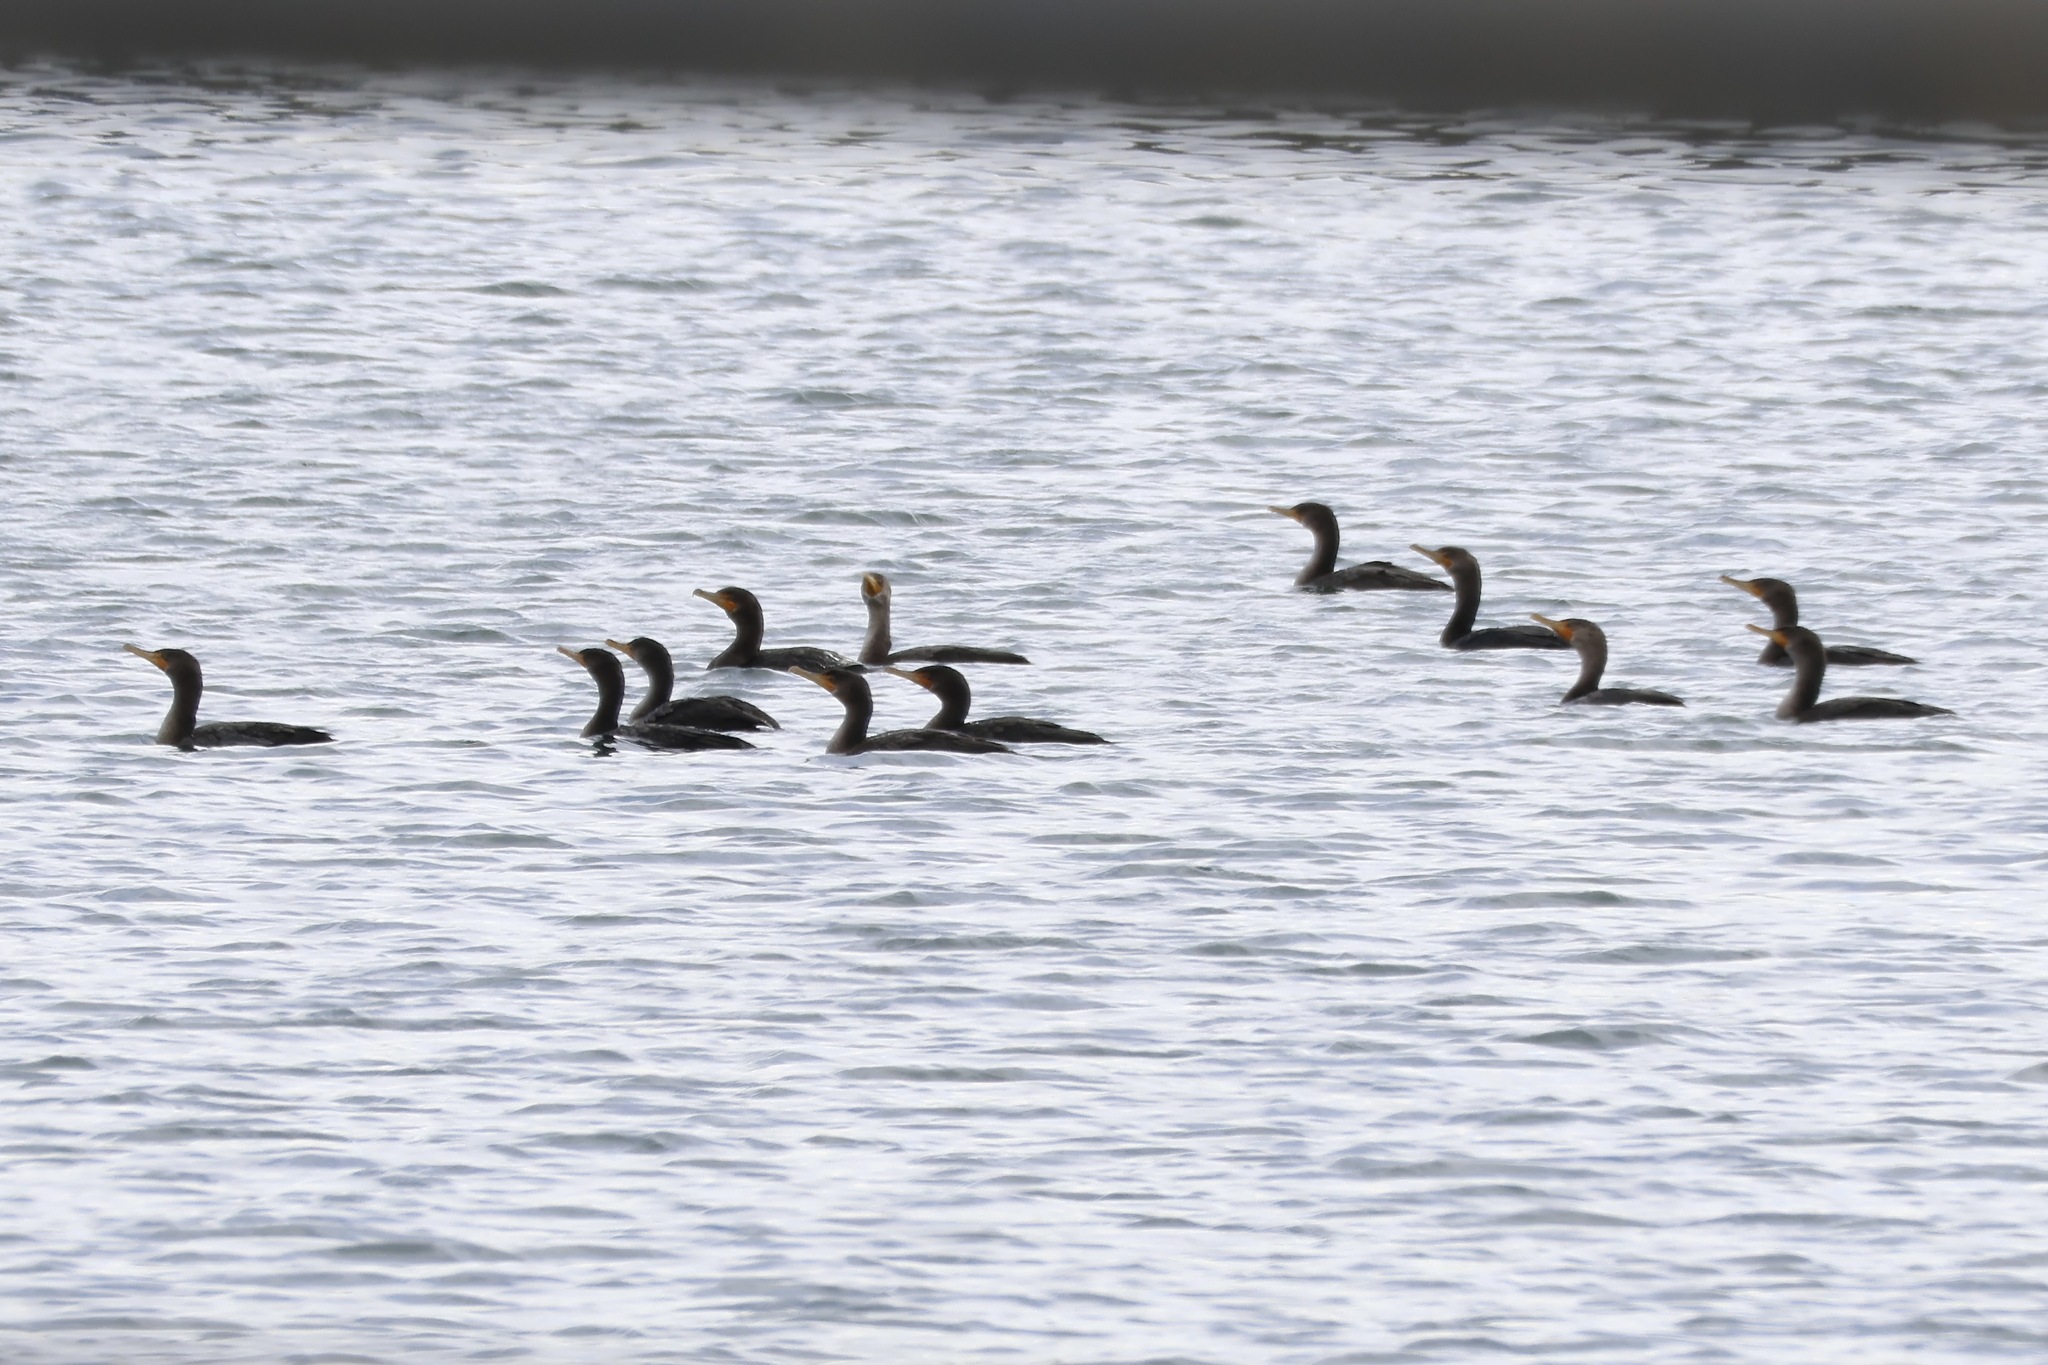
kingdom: Animalia
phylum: Chordata
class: Aves
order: Suliformes
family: Phalacrocoracidae
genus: Phalacrocorax
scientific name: Phalacrocorax auritus
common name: Double-crested cormorant
